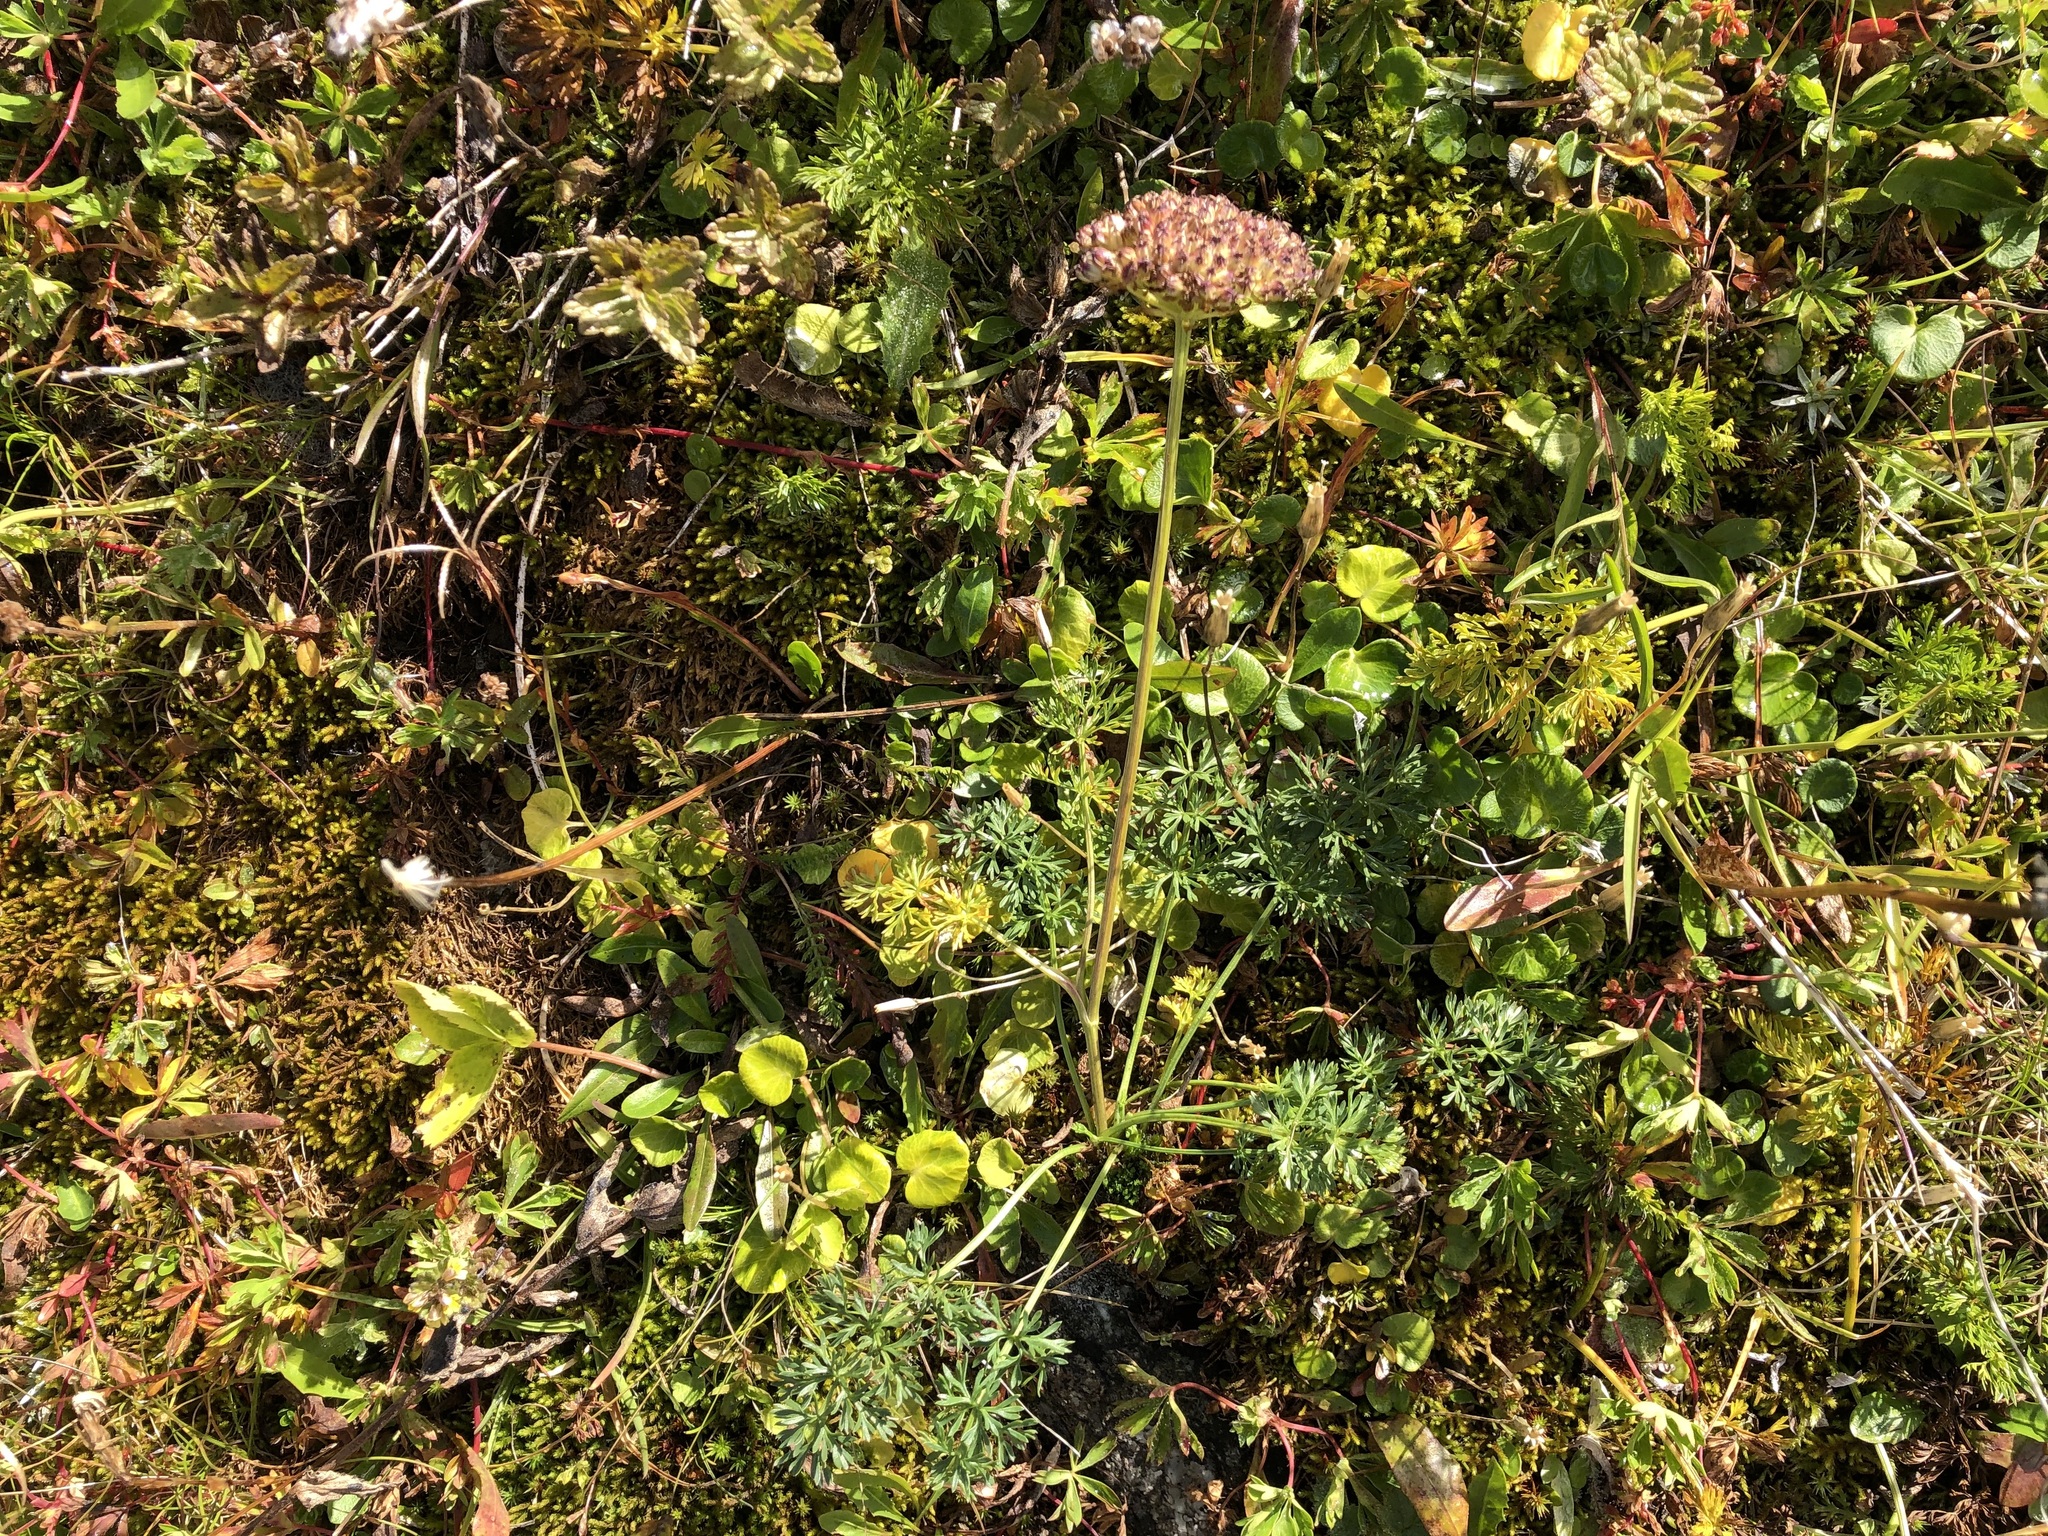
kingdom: Plantae
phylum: Tracheophyta
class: Magnoliopsida
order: Apiales
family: Apiaceae
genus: Mutellina
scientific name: Mutellina adonidifolia
